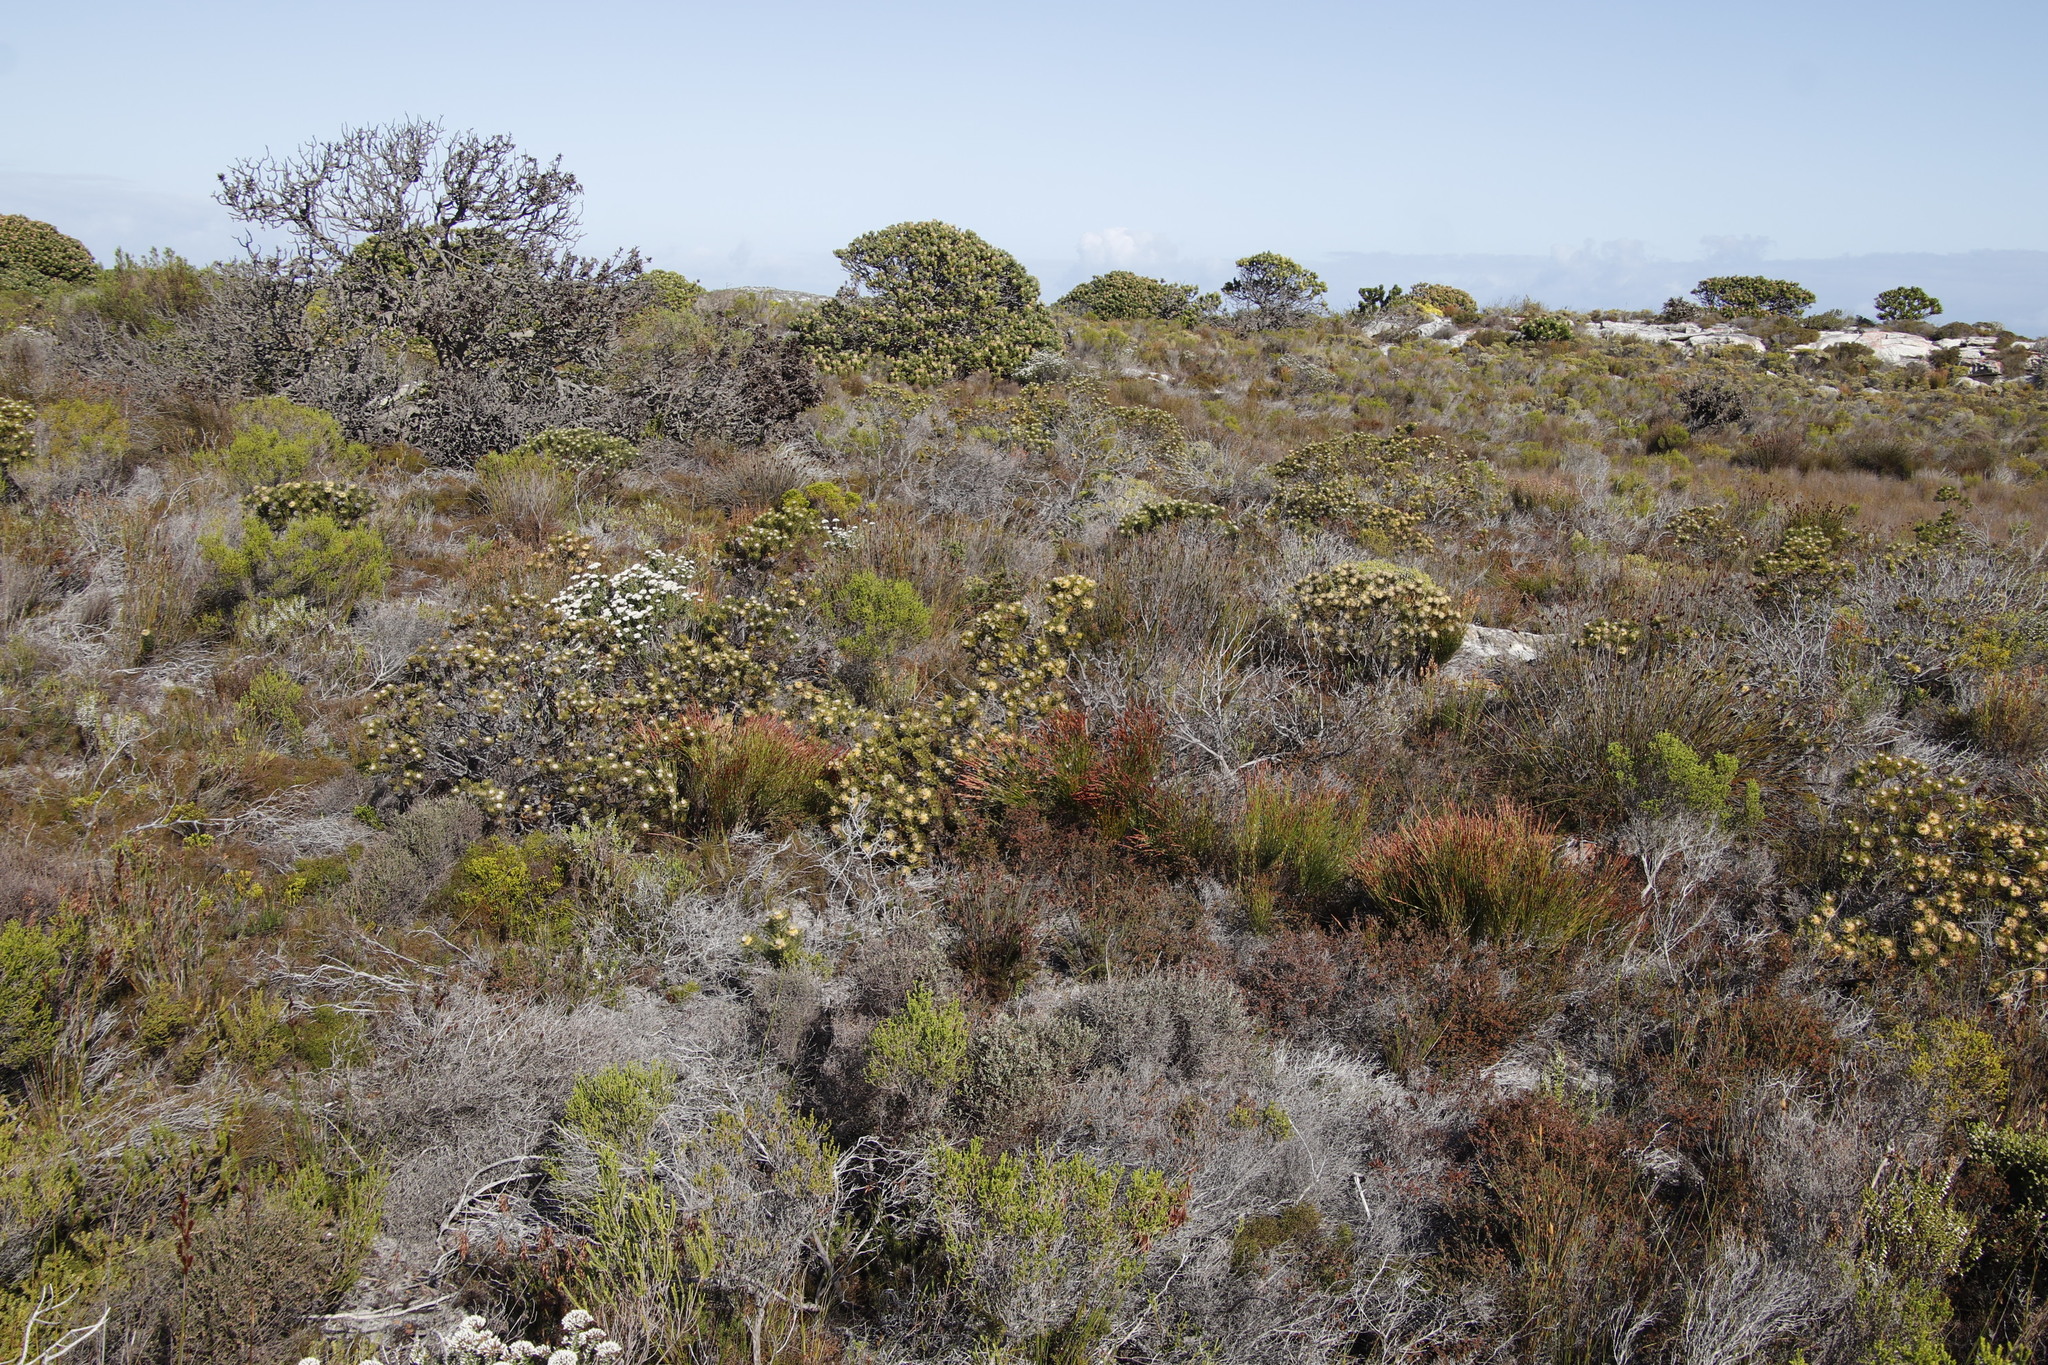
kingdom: Plantae
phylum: Tracheophyta
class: Magnoliopsida
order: Proteales
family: Proteaceae
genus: Serruria
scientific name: Serruria villosa
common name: Golden spiderhead
